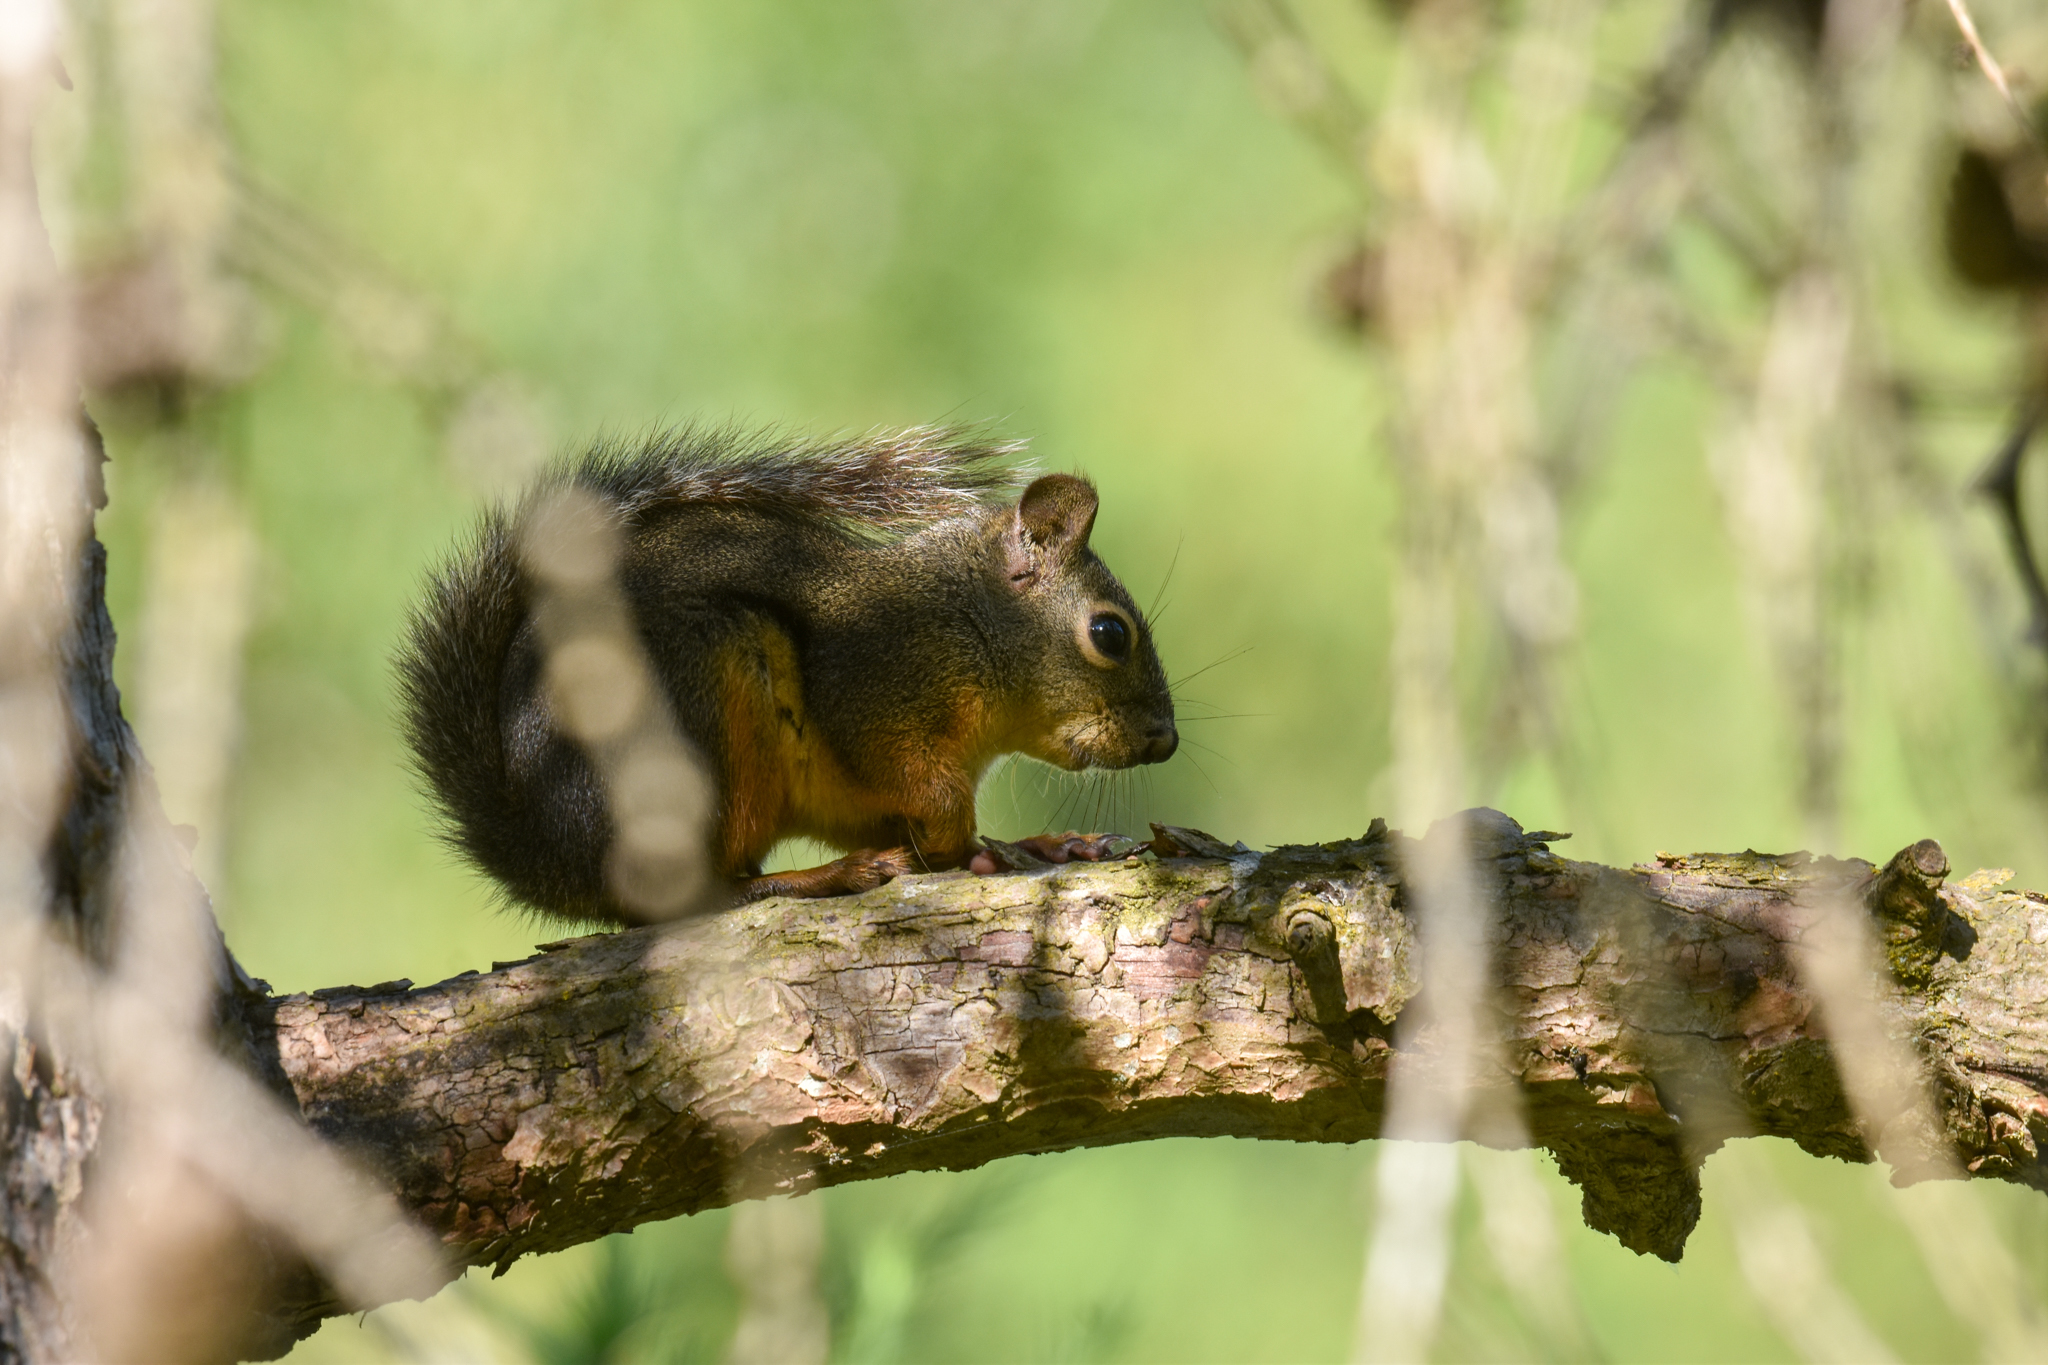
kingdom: Animalia
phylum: Chordata
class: Mammalia
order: Rodentia
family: Sciuridae
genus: Tamiasciurus
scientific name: Tamiasciurus douglasii
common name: Douglas's squirrel
